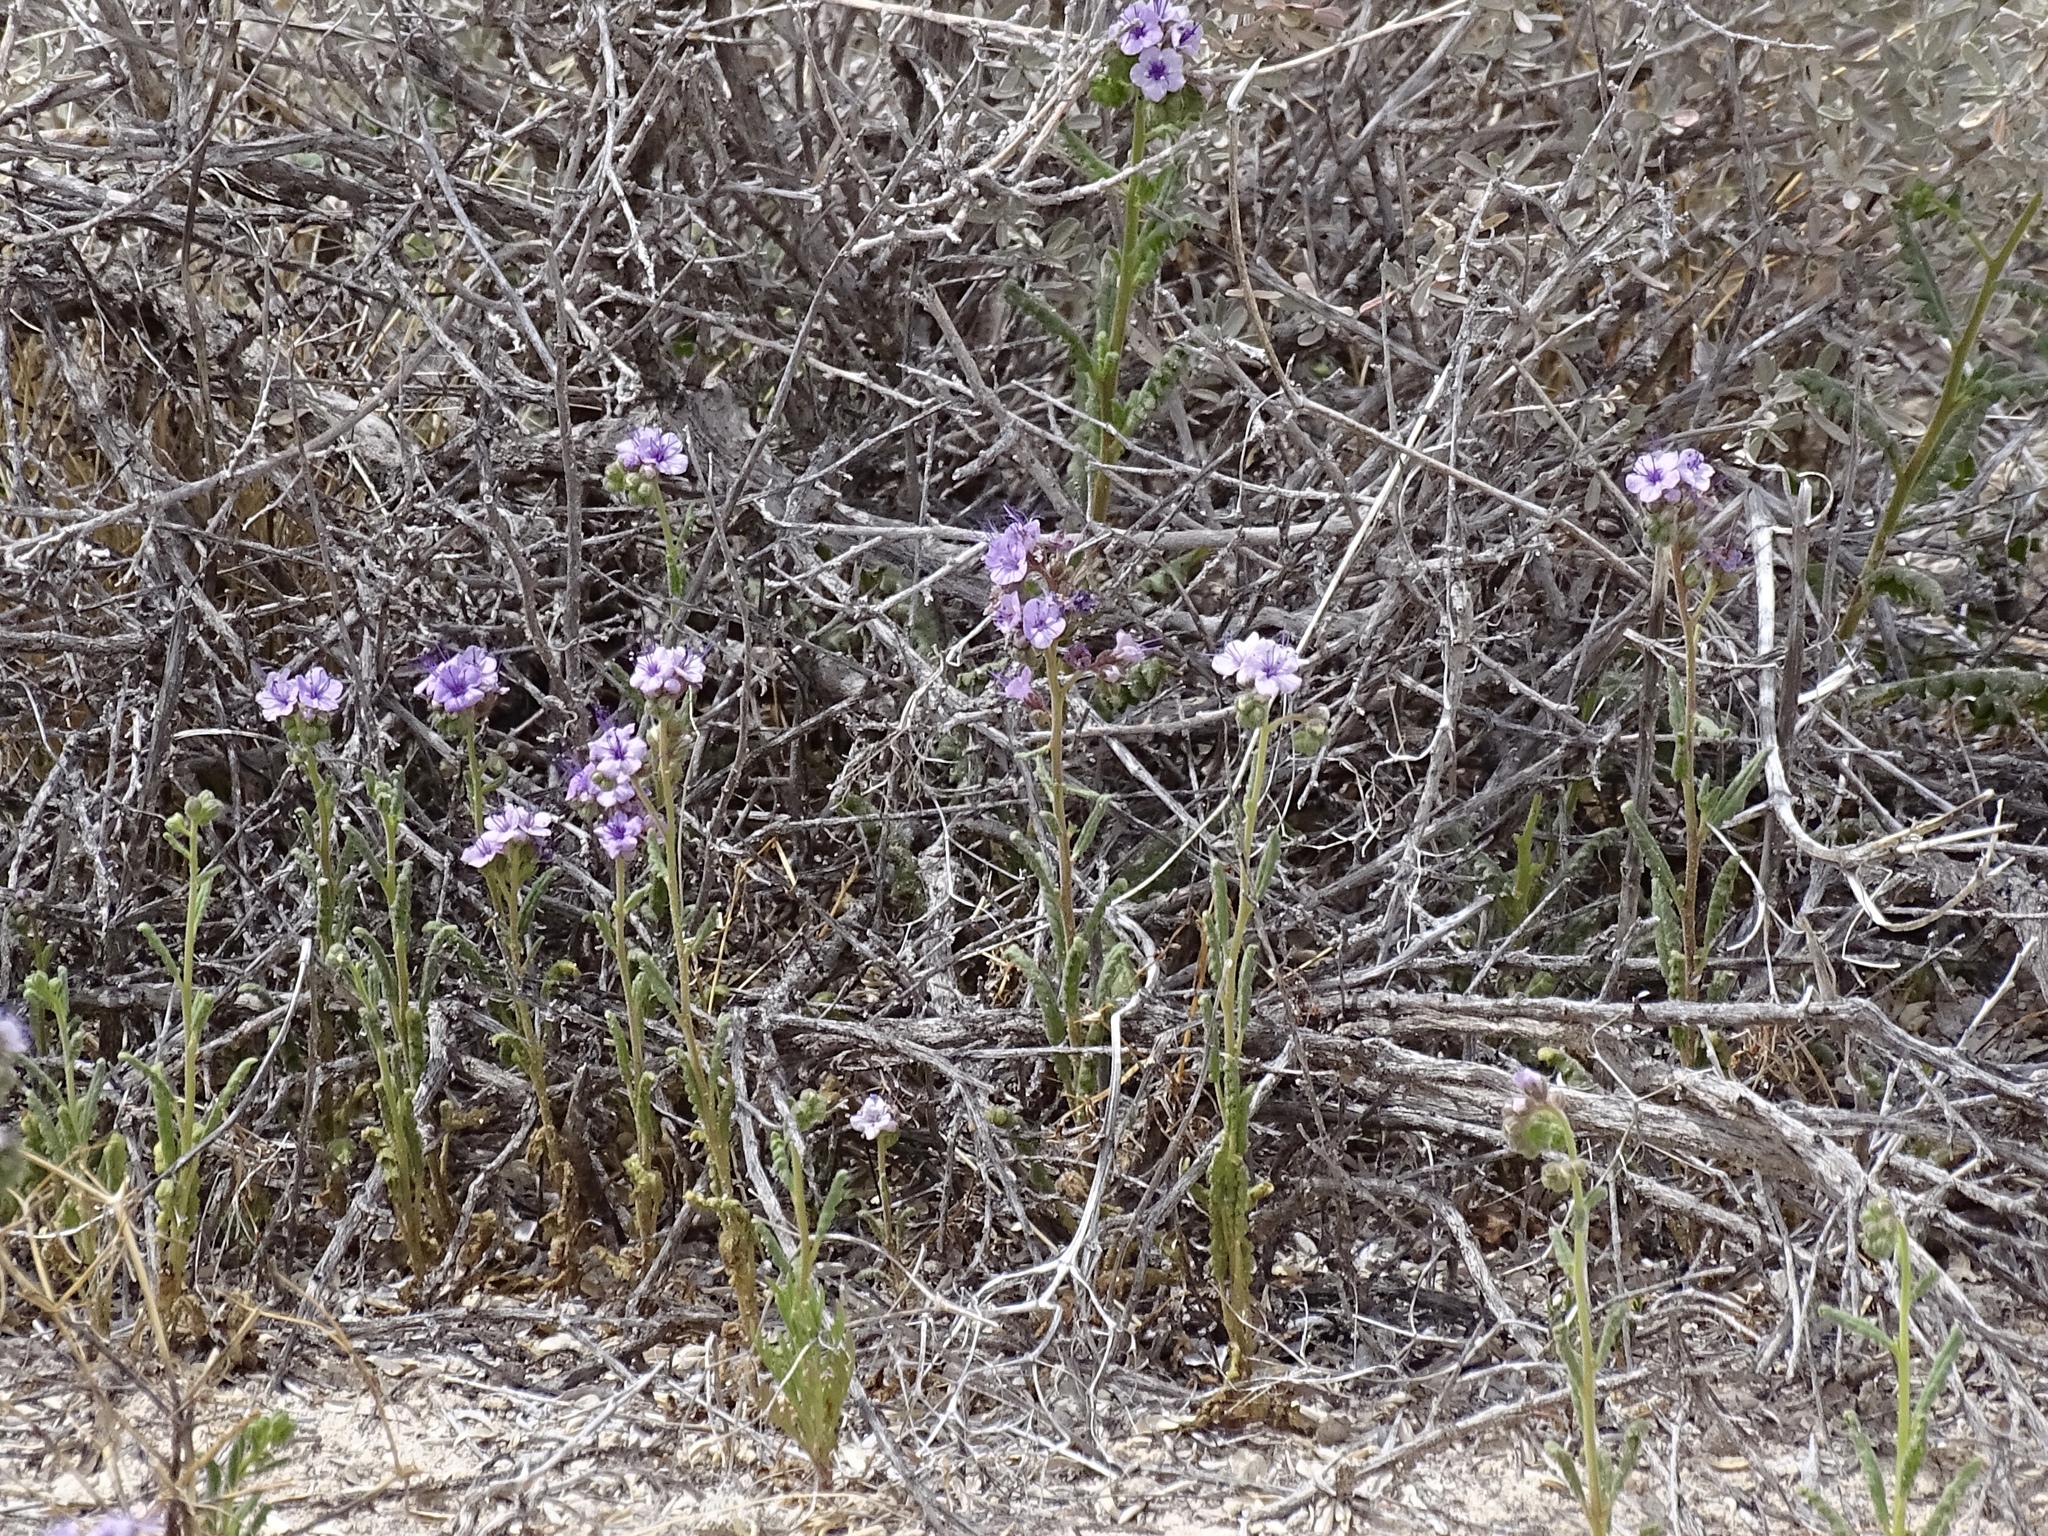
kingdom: Plantae
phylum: Tracheophyta
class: Magnoliopsida
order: Boraginales
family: Hydrophyllaceae
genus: Phacelia
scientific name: Phacelia integrifolia
